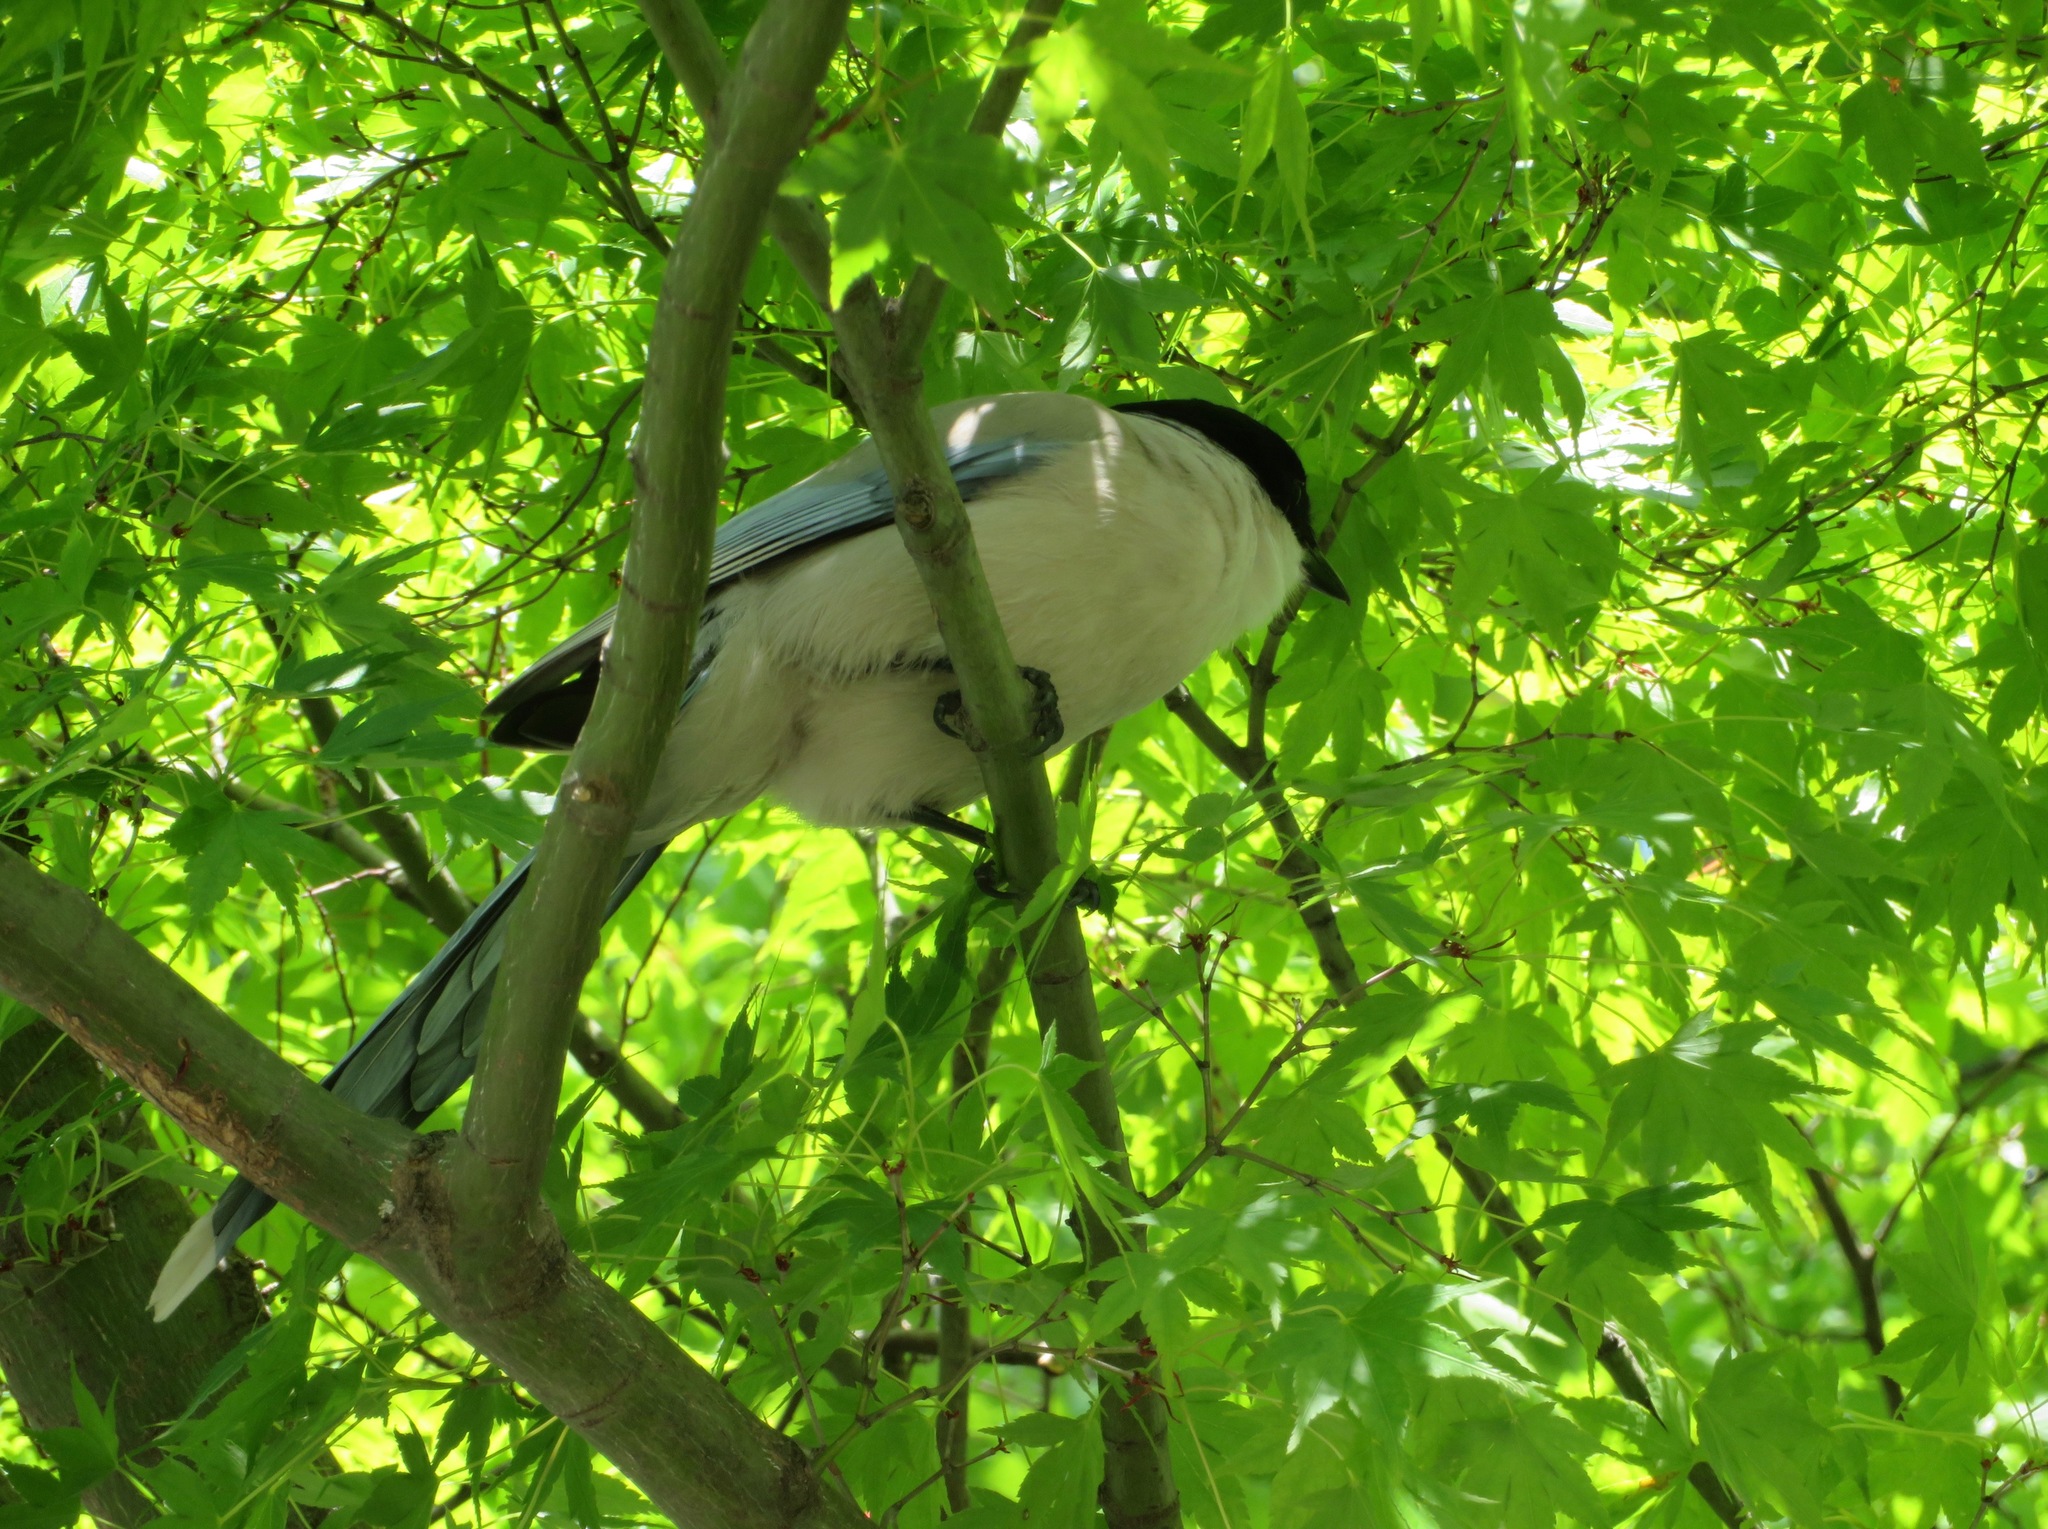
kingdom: Animalia
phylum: Chordata
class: Aves
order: Passeriformes
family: Corvidae
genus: Cyanopica
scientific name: Cyanopica cyanus
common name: Azure-winged magpie
